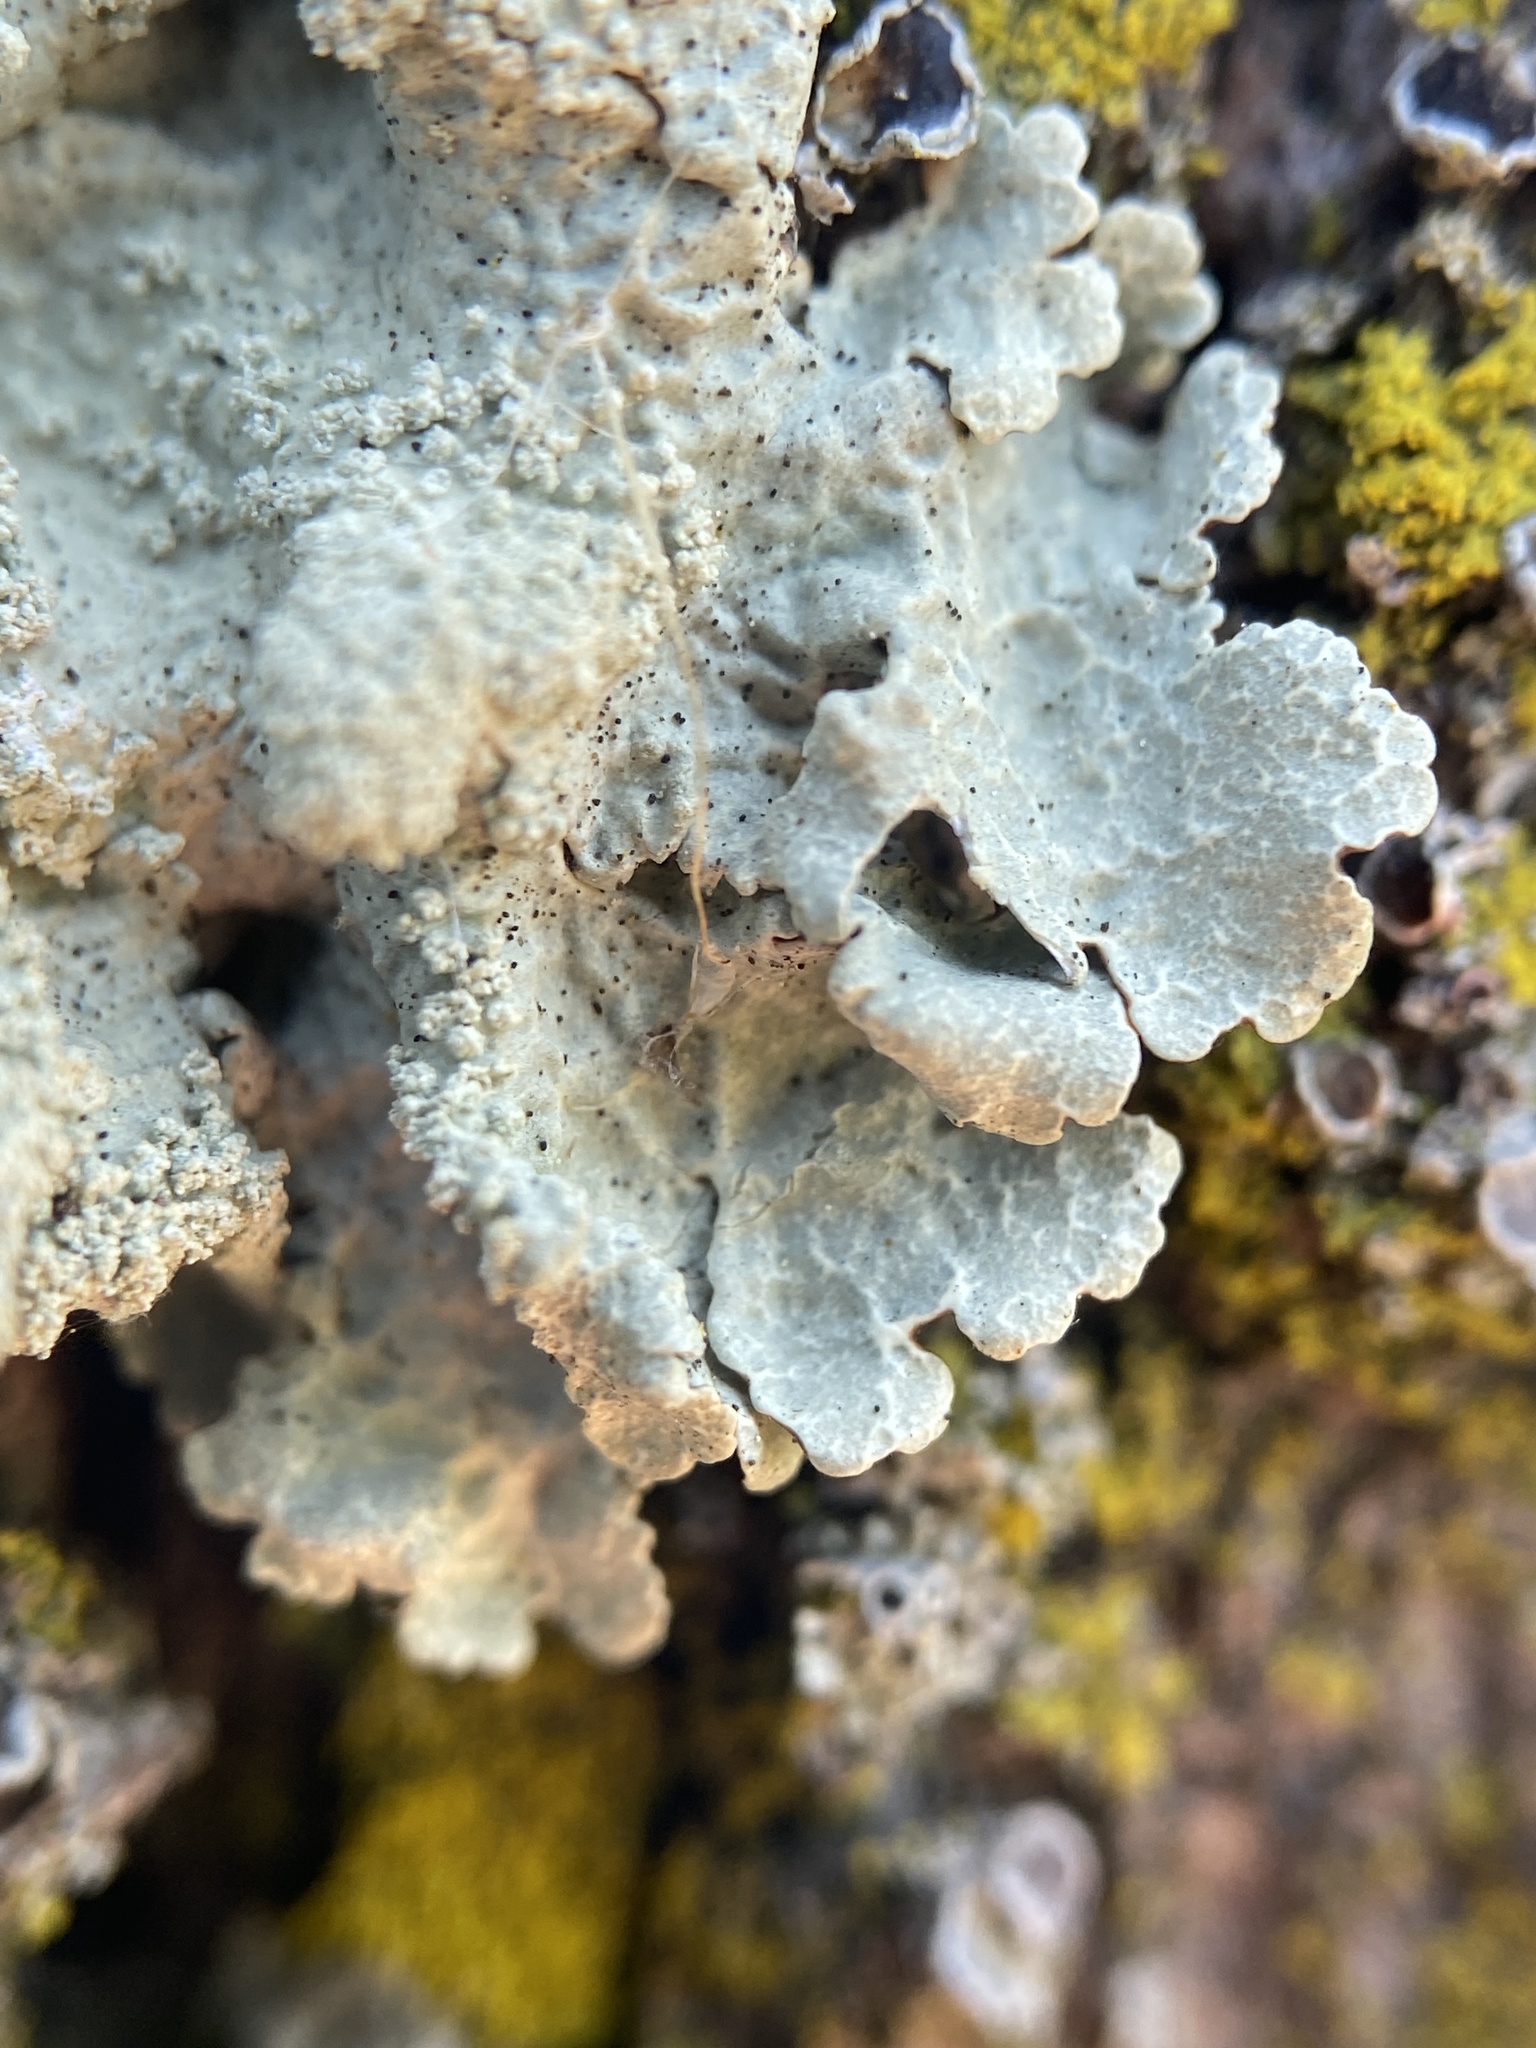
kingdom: Fungi
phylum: Ascomycota
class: Lecanoromycetes
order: Lecanorales
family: Parmeliaceae
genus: Flavoparmelia
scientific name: Flavoparmelia caperata
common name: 40-mile per hour lichen
